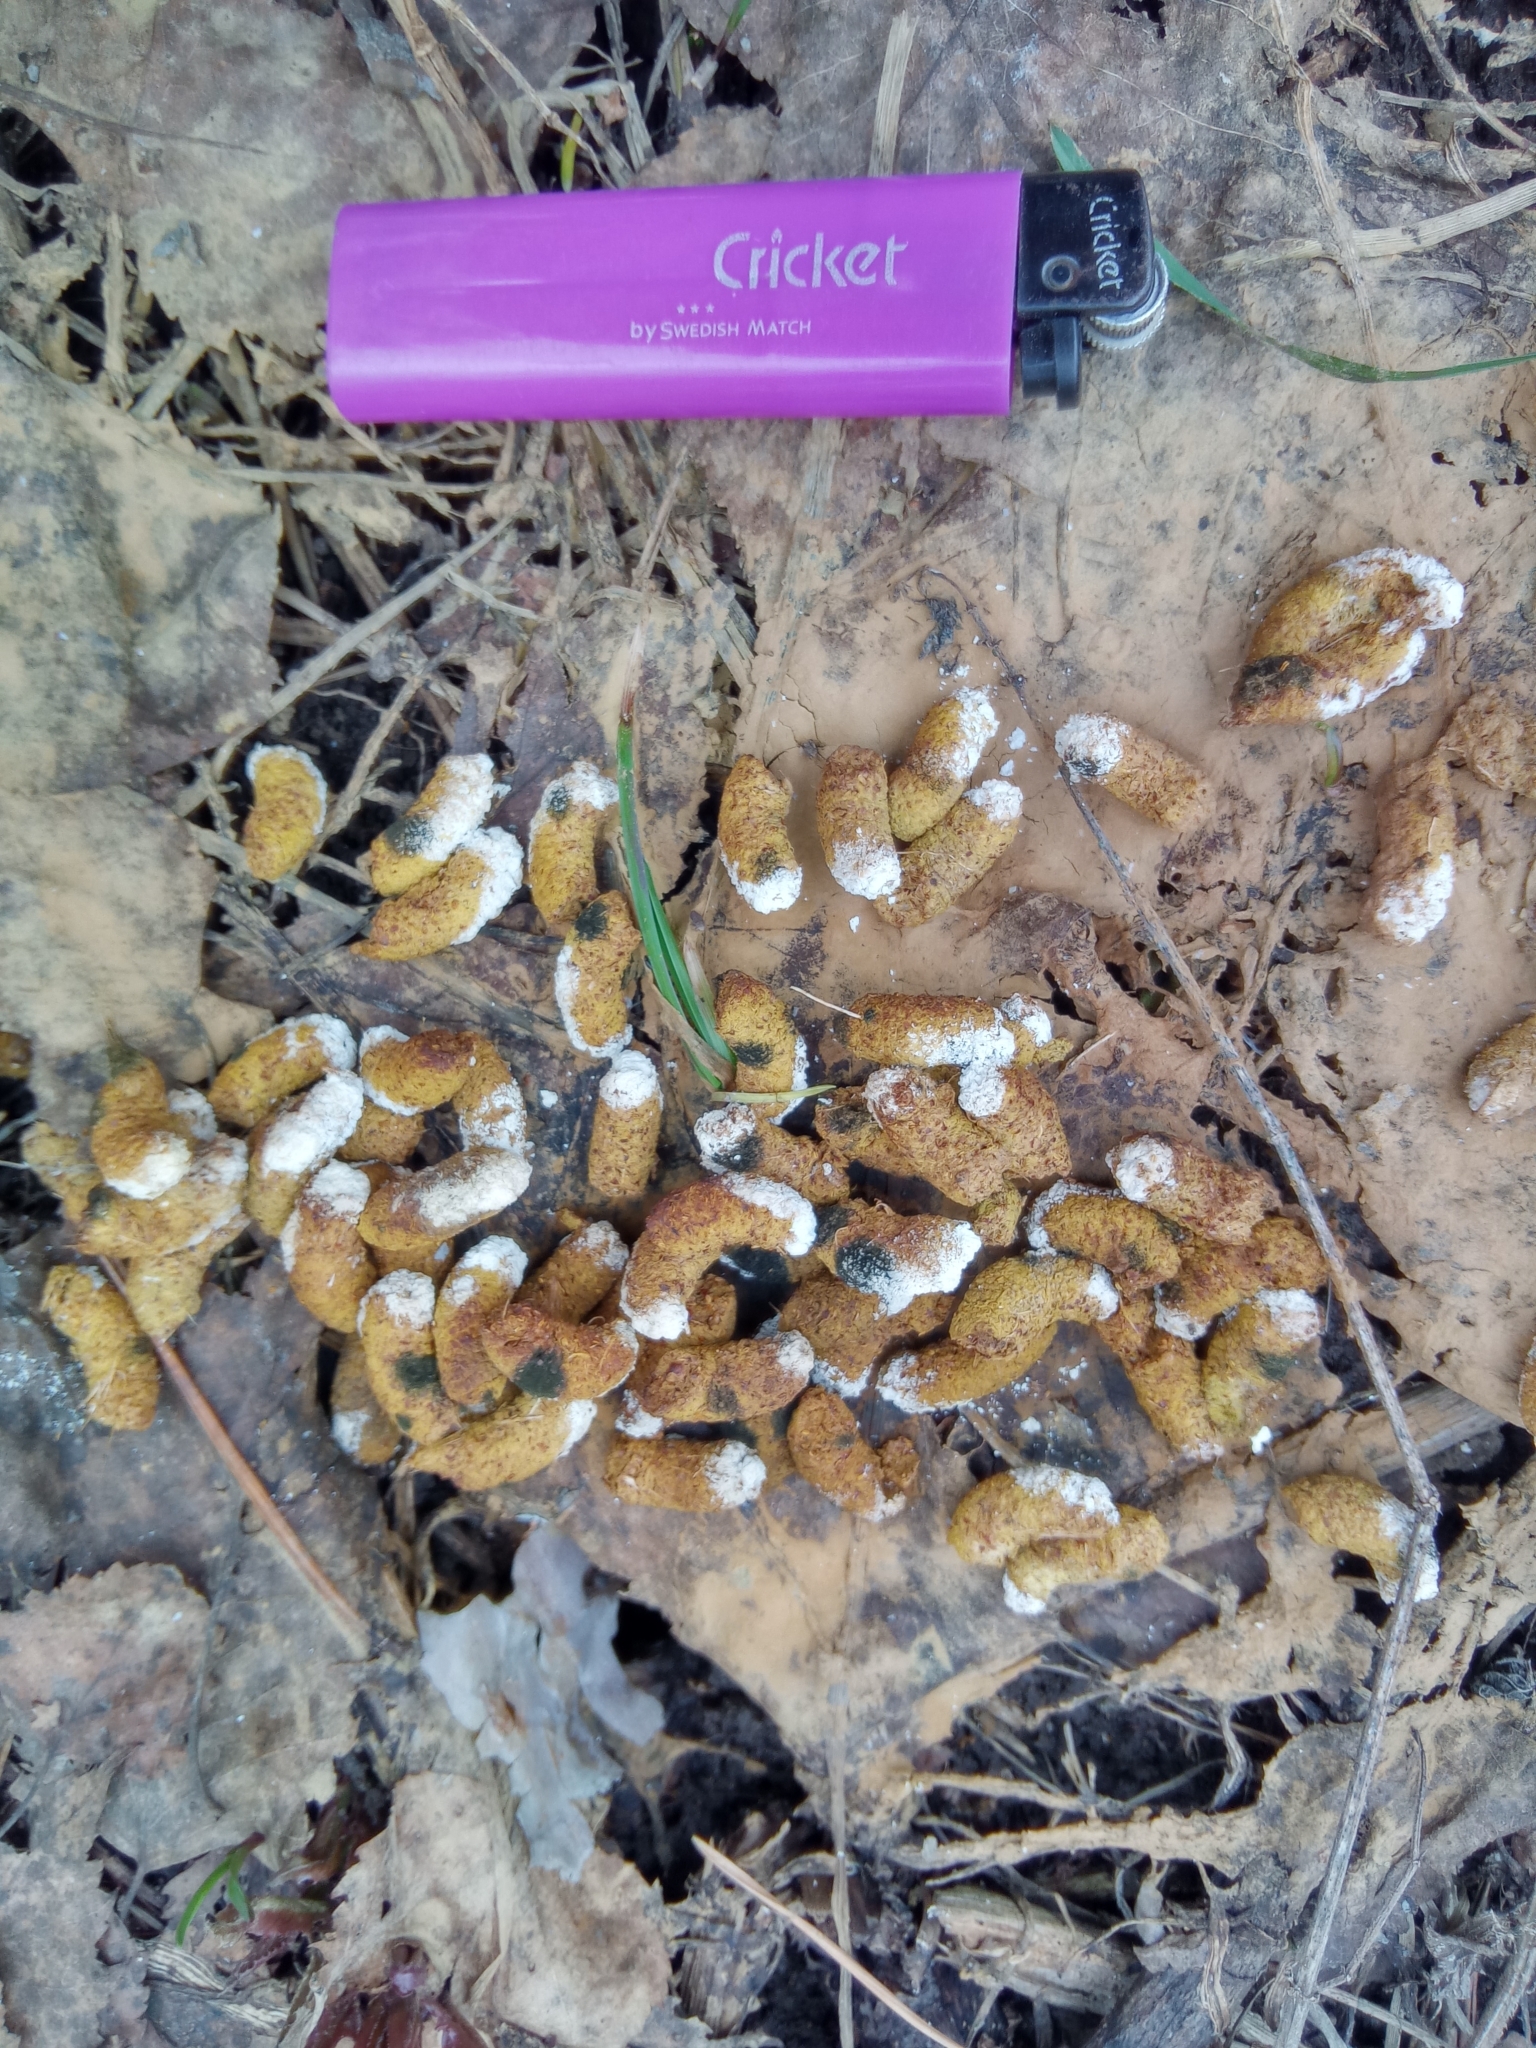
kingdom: Animalia
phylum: Chordata
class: Aves
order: Galliformes
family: Phasianidae
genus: Tetrastes
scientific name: Tetrastes bonasia
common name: Hazel grouse
